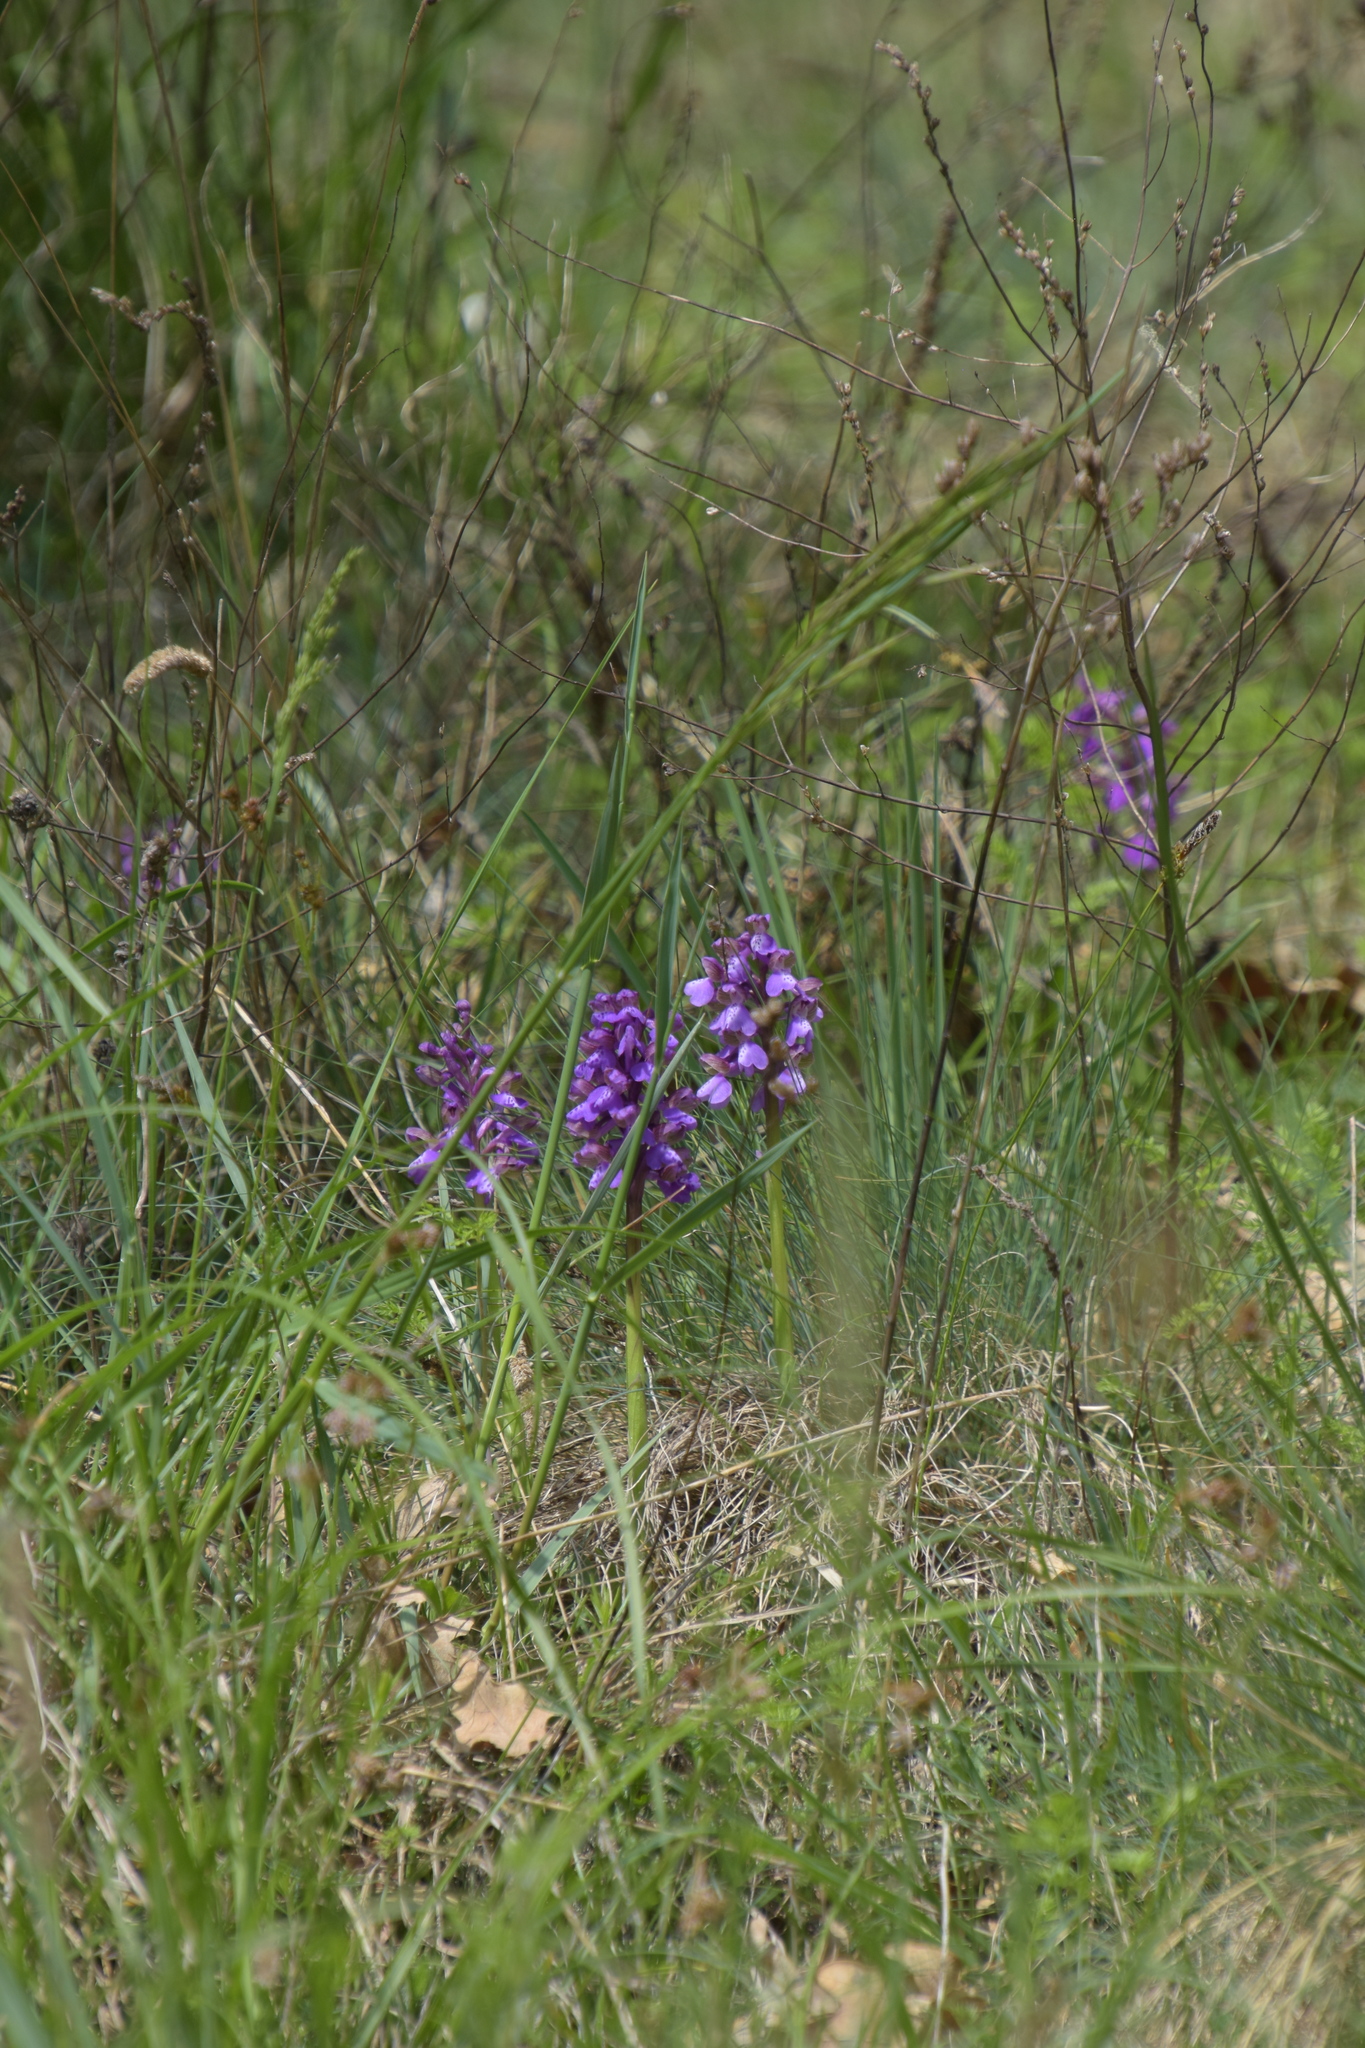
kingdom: Plantae
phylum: Tracheophyta
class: Liliopsida
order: Asparagales
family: Orchidaceae
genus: Anacamptis
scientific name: Anacamptis morio
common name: Green-winged orchid
